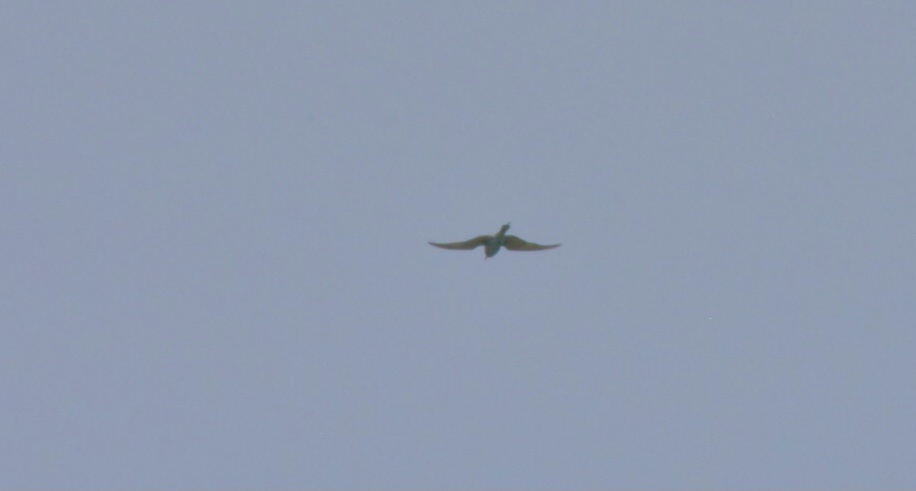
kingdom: Animalia
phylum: Chordata
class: Aves
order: Coraciiformes
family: Meropidae
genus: Merops
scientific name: Merops persicus
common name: Blue-cheeked bee-eater
